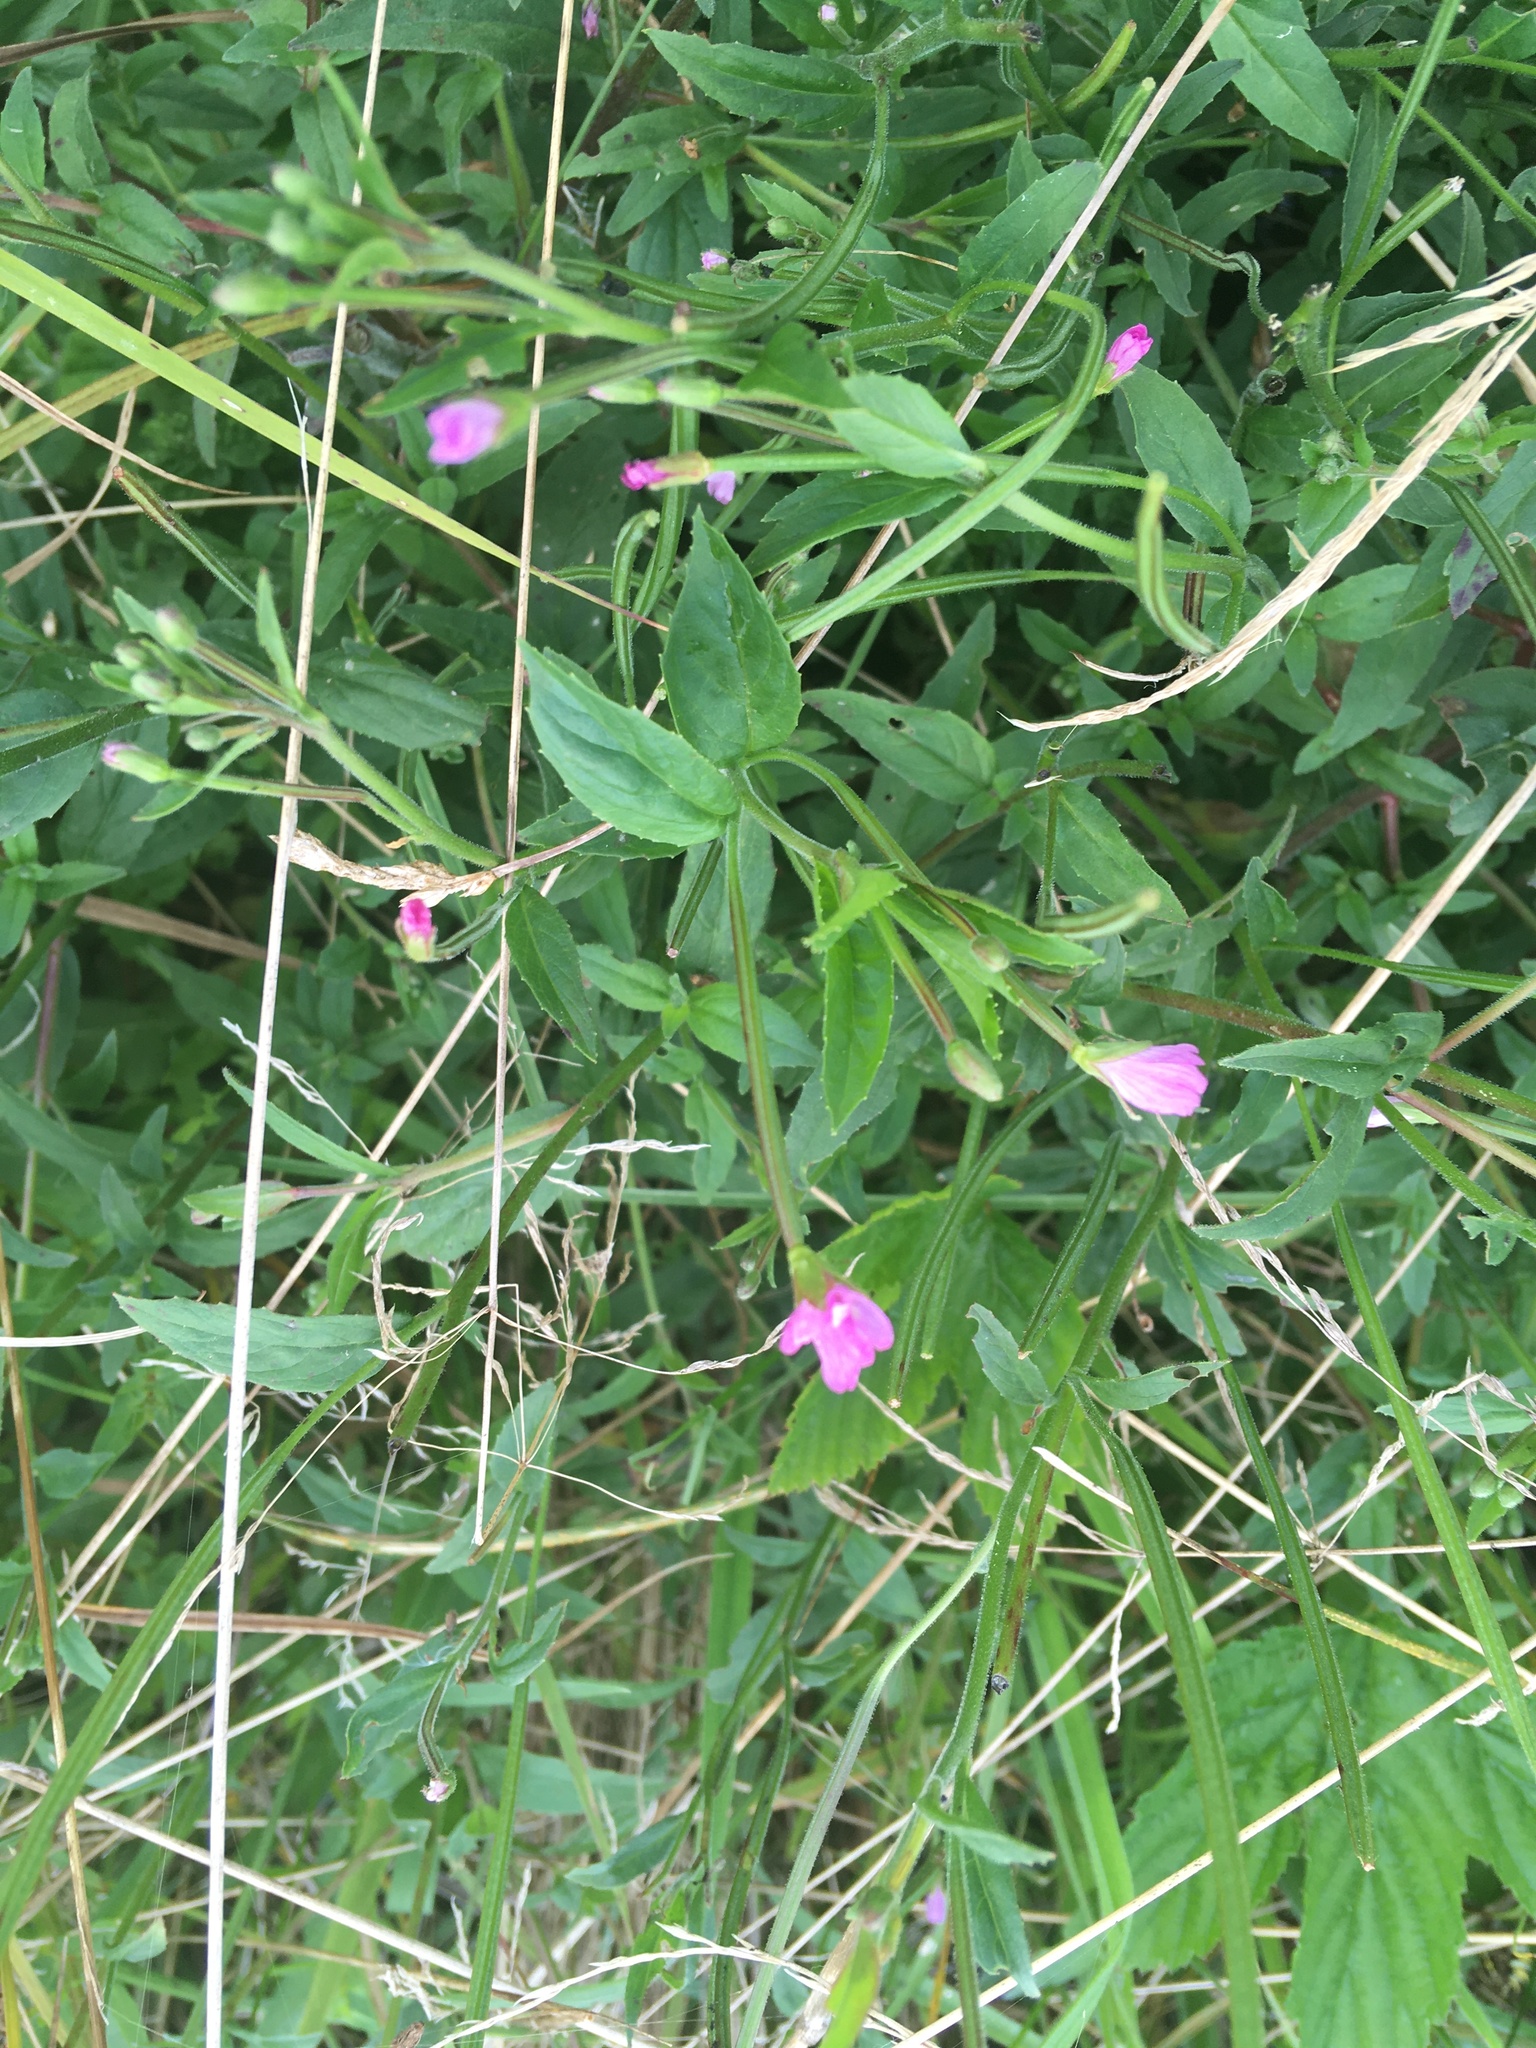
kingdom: Plantae
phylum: Tracheophyta
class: Magnoliopsida
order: Myrtales
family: Onagraceae
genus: Epilobium
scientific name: Epilobium parviflorum
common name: Hoary willowherb
